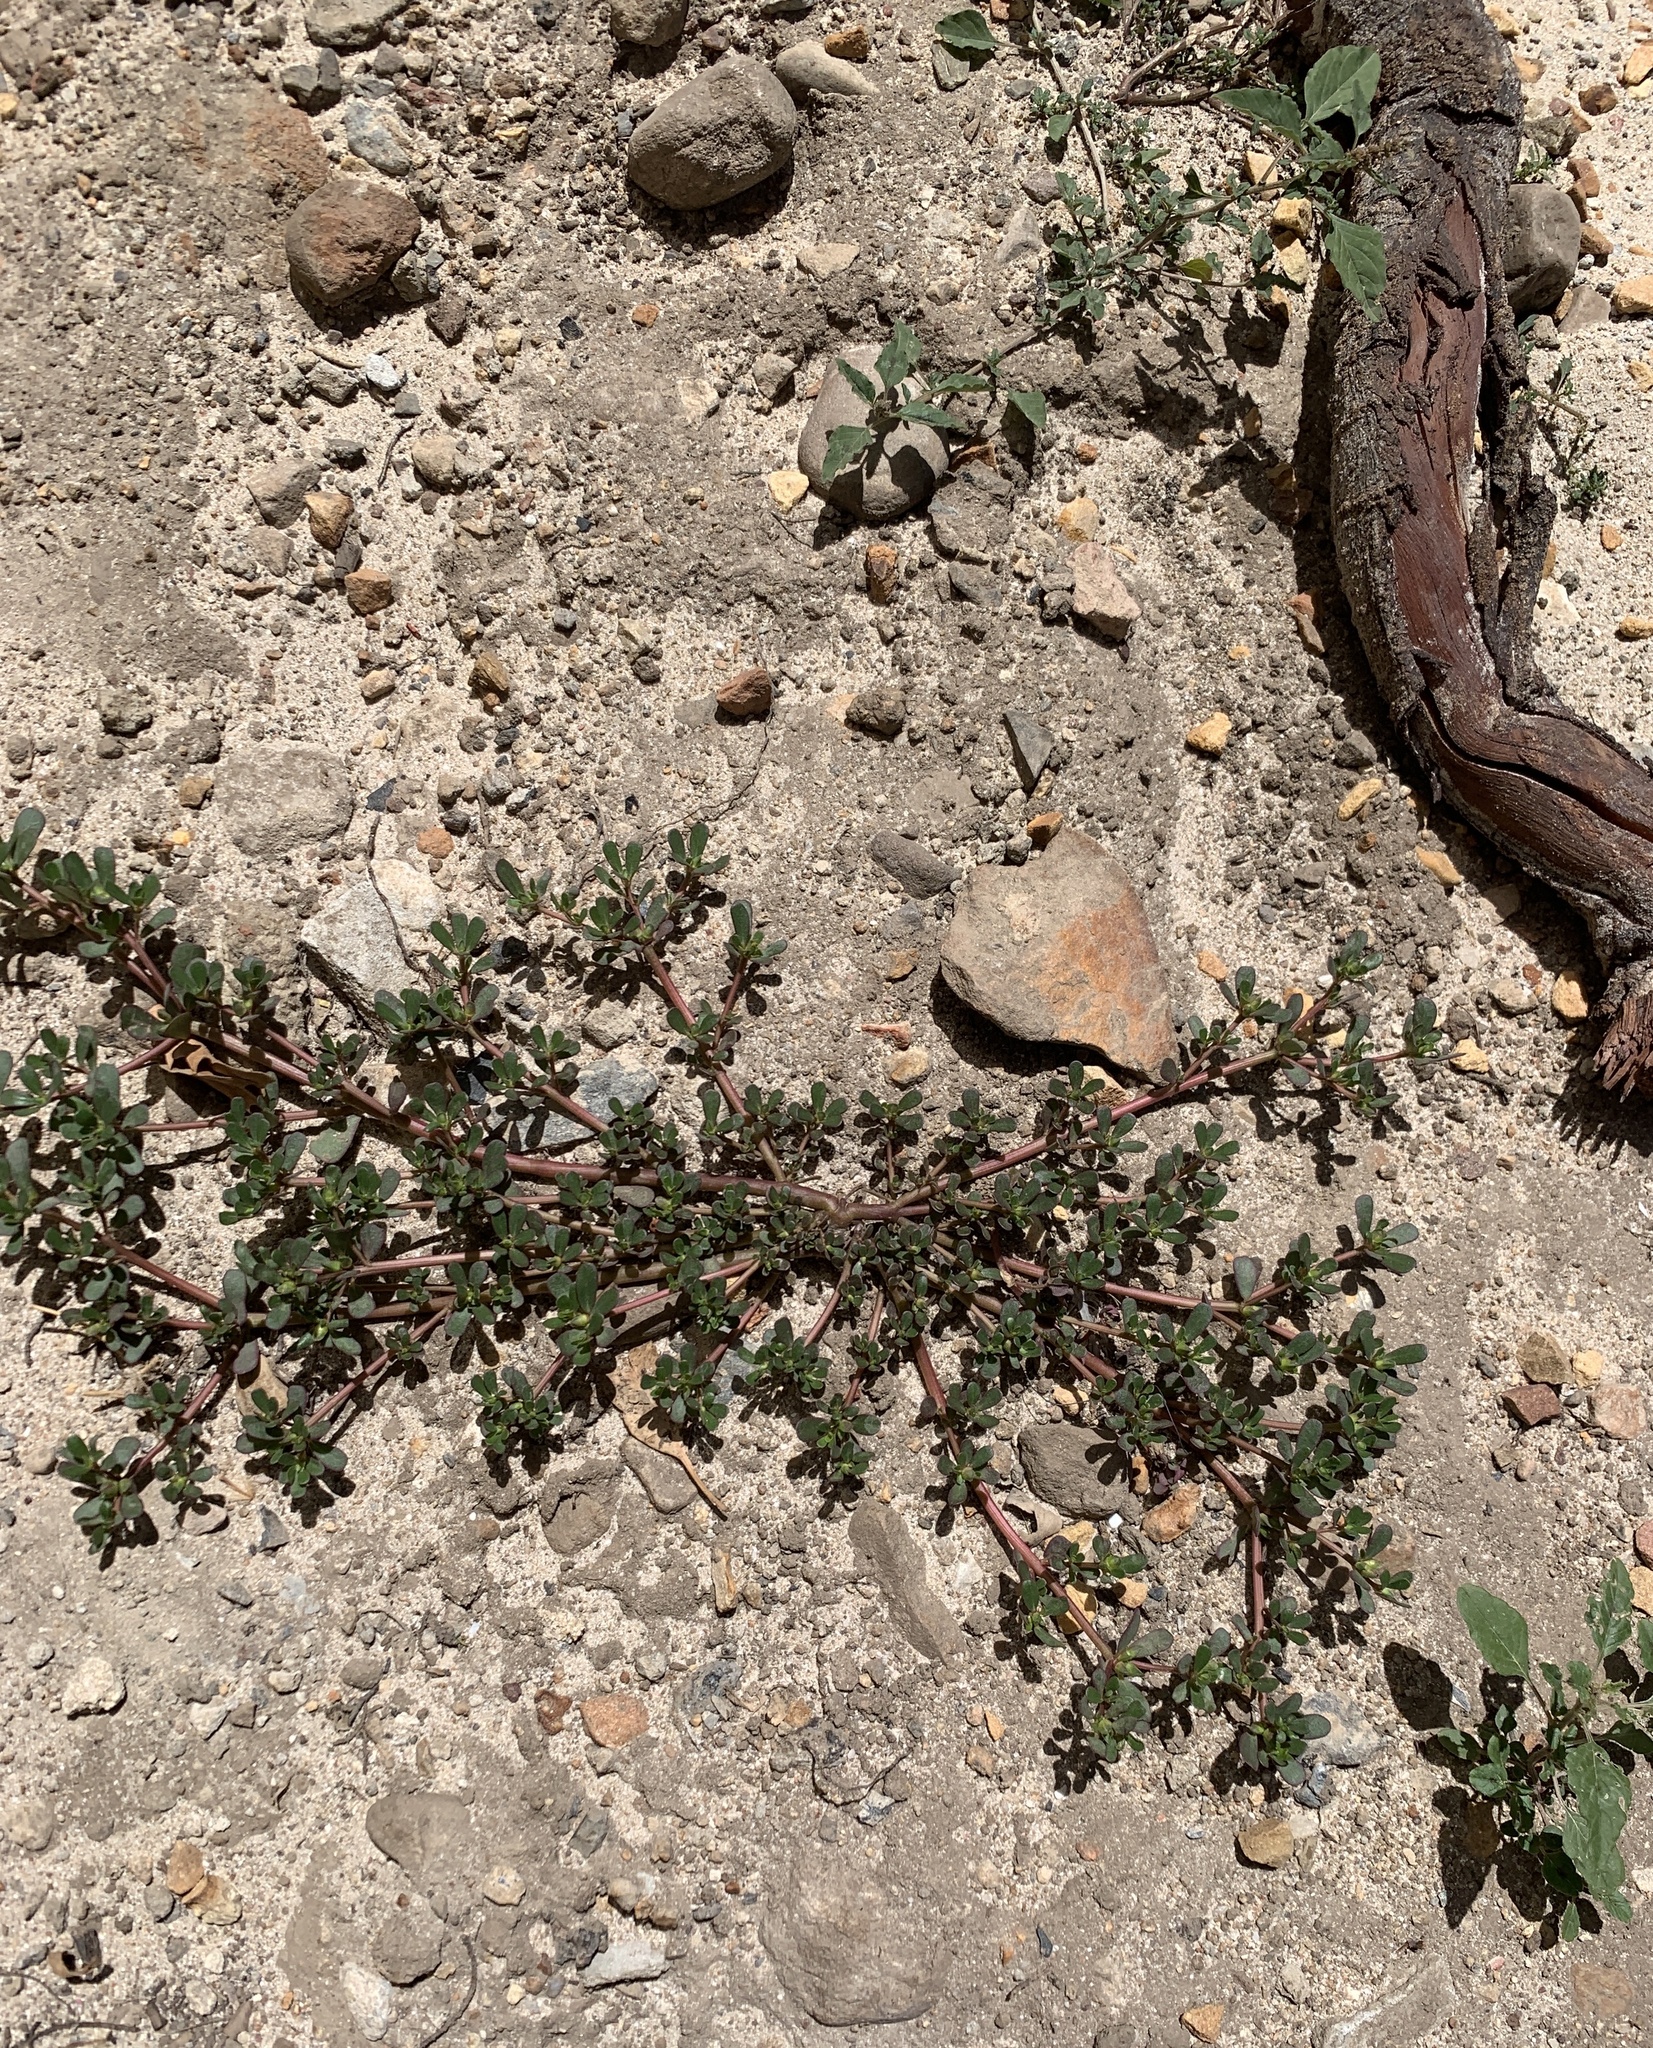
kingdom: Plantae
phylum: Tracheophyta
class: Magnoliopsida
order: Caryophyllales
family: Portulacaceae
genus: Portulaca
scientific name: Portulaca oleracea
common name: Common purslane
